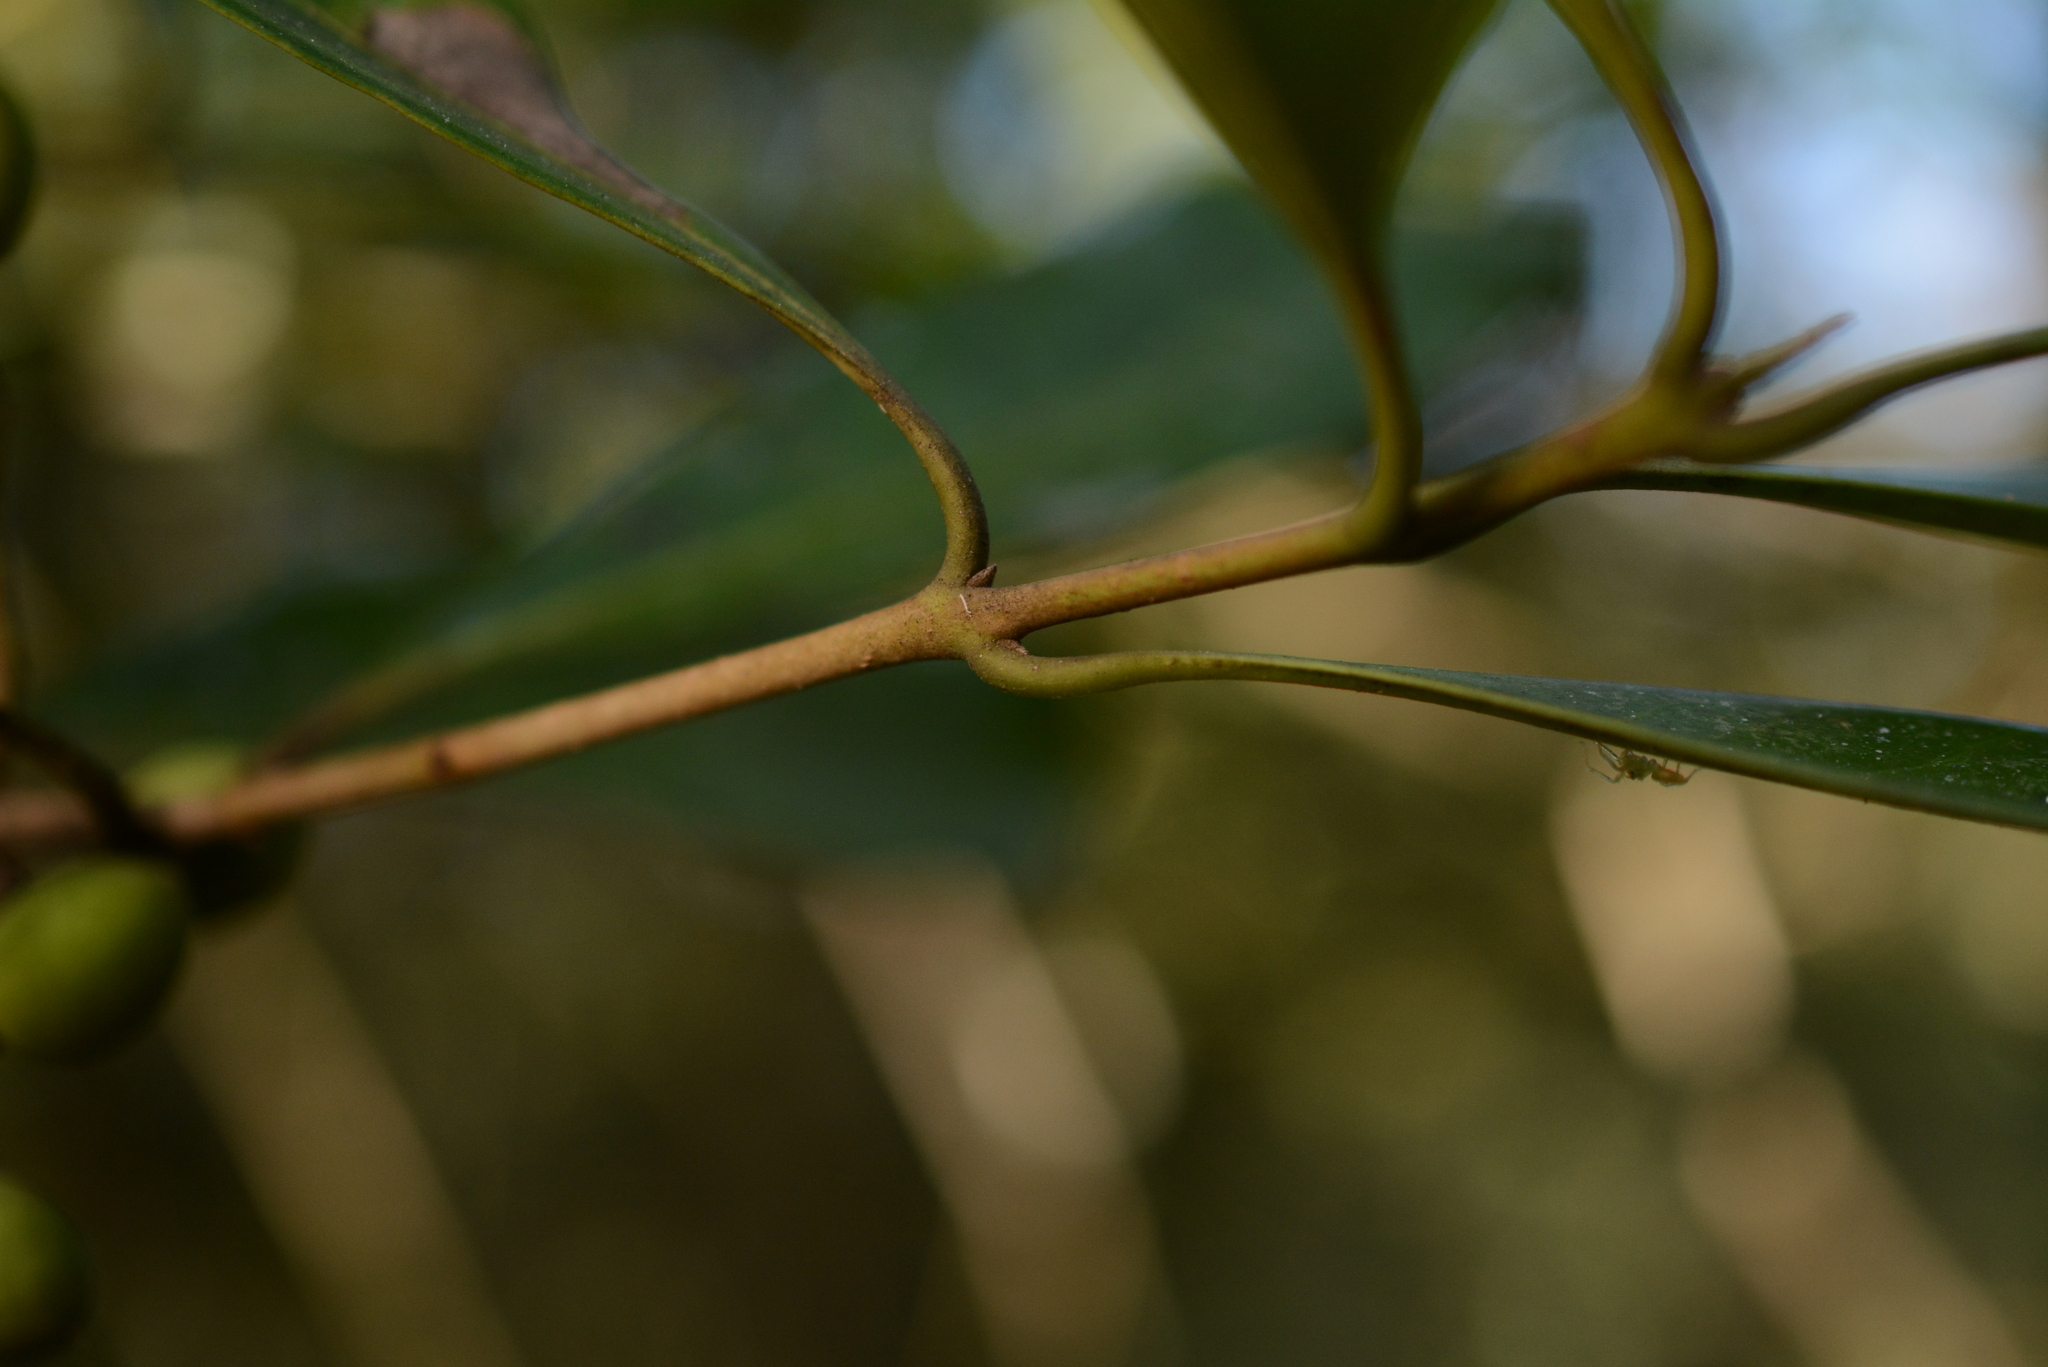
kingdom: Plantae
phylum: Tracheophyta
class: Magnoliopsida
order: Lamiales
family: Oleaceae
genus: Cartrema
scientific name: Cartrema americana
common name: Devilwood
